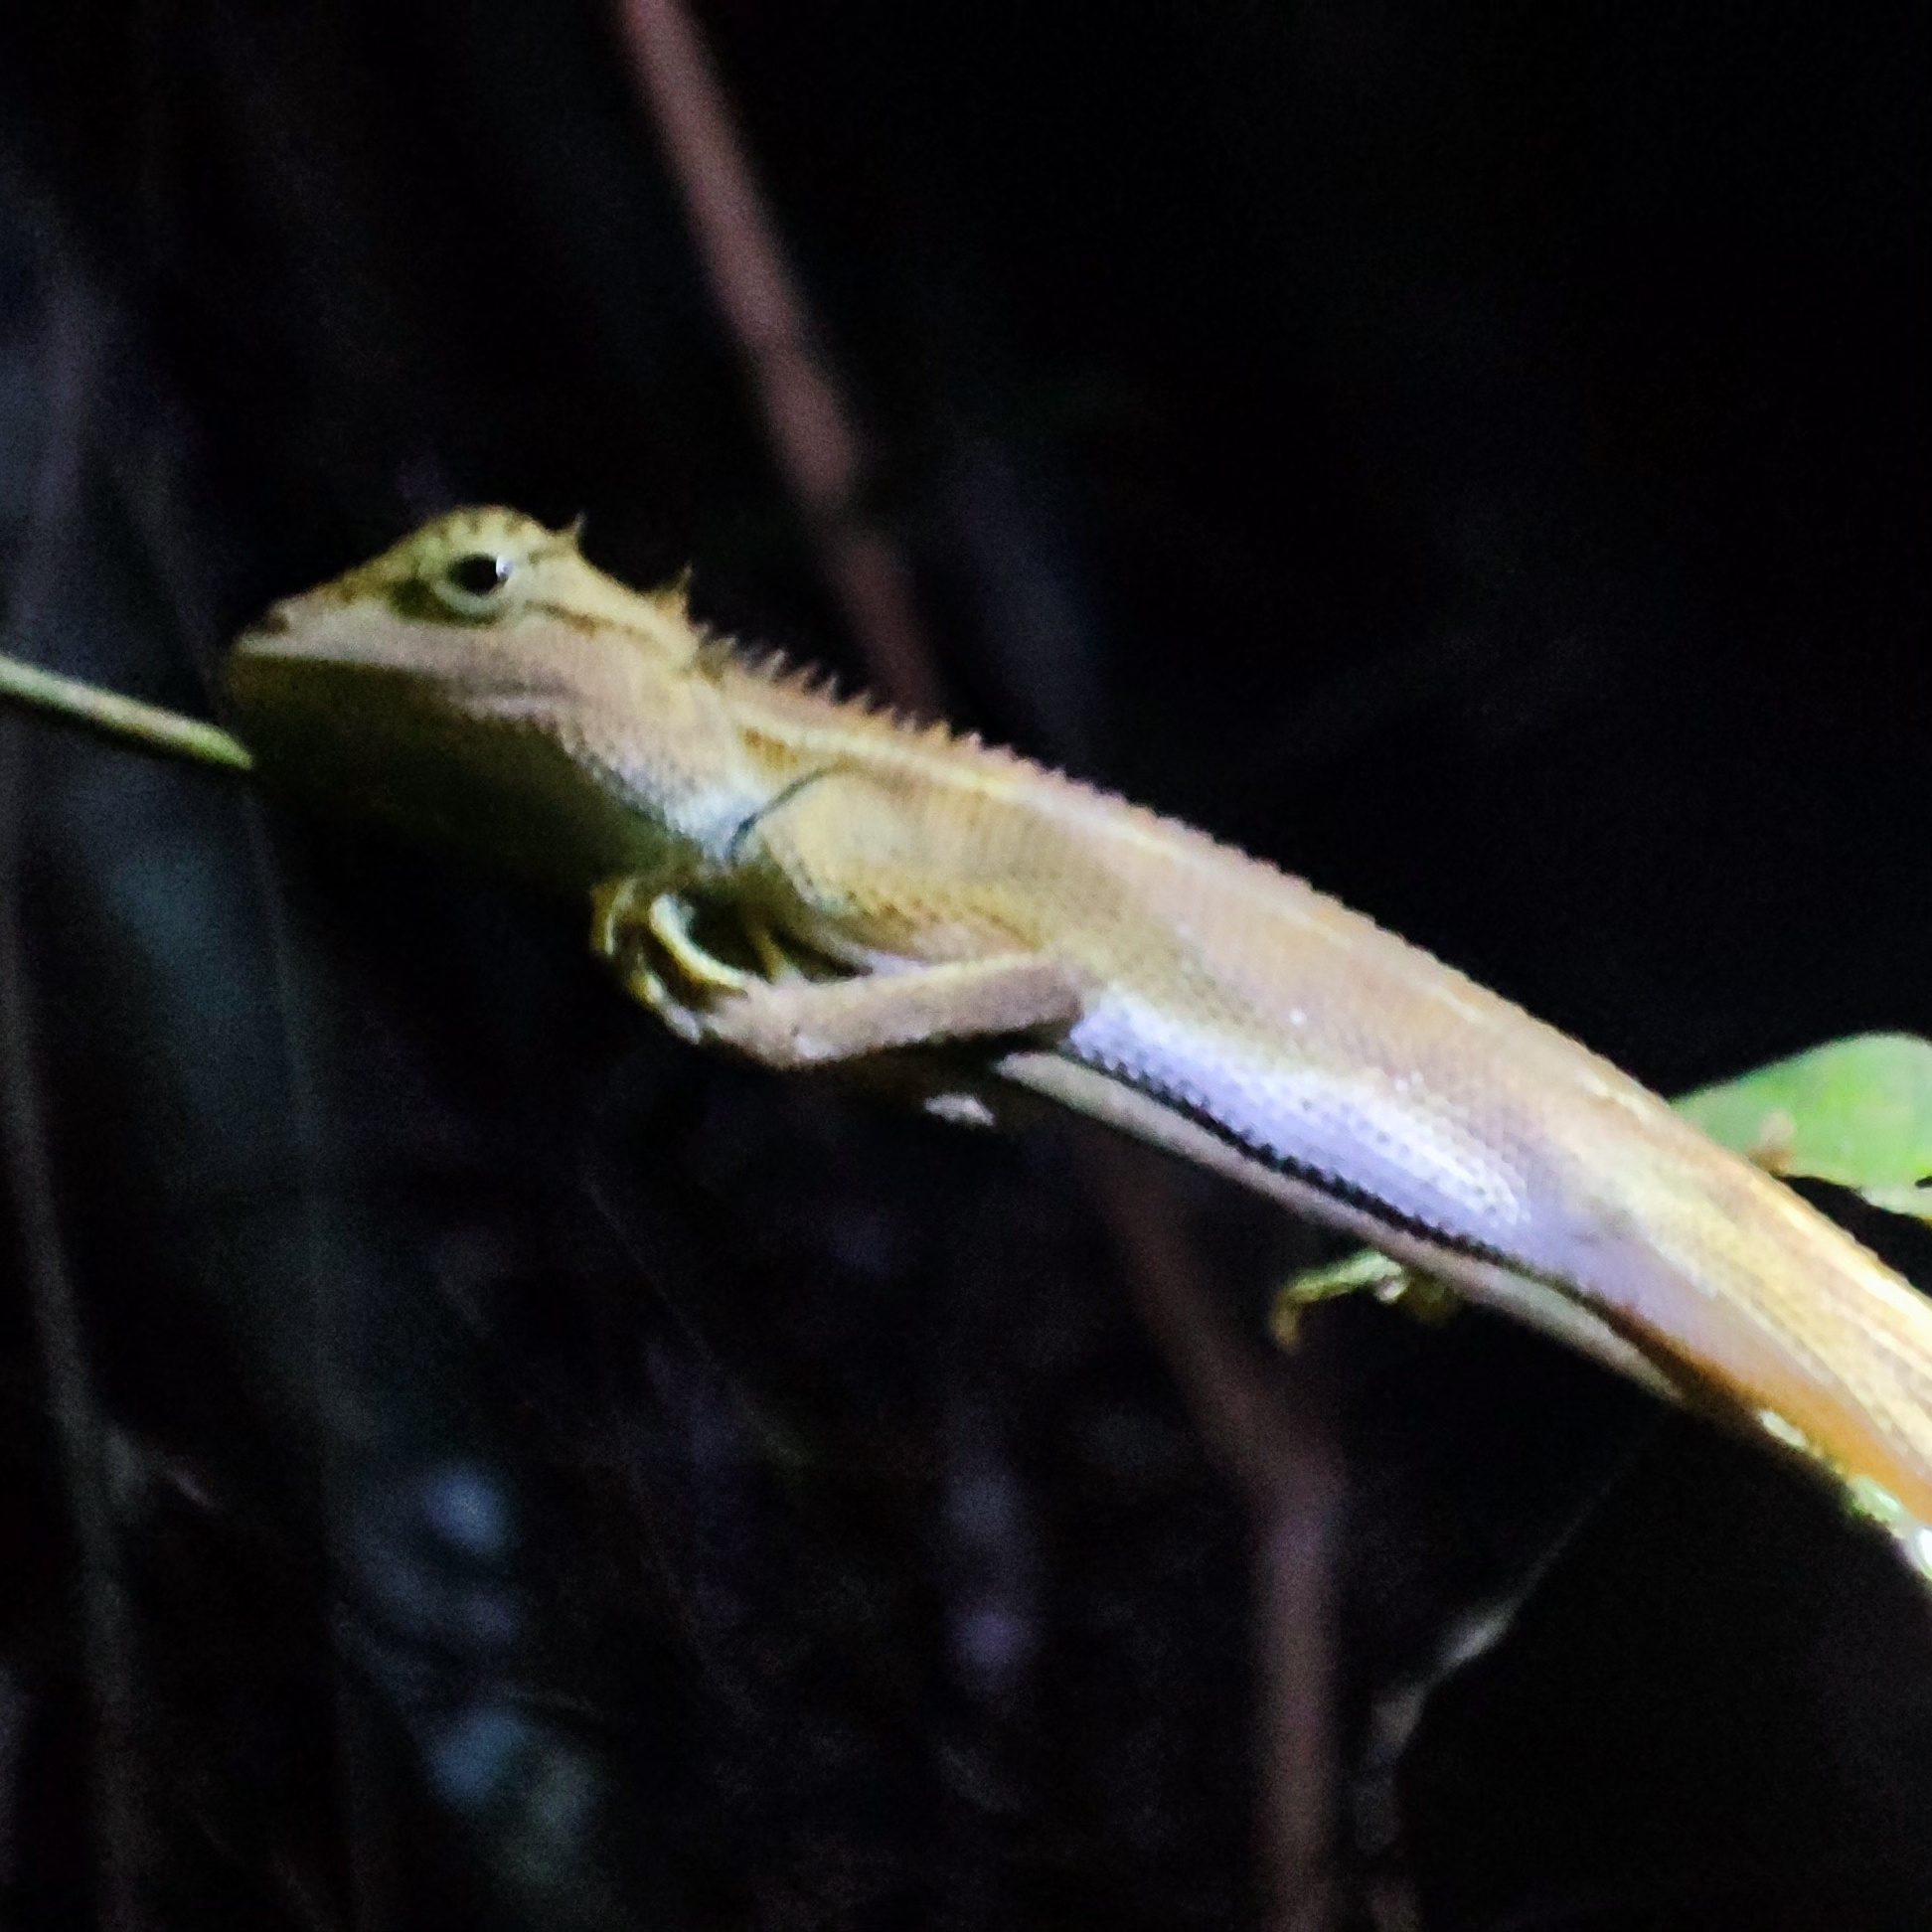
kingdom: Animalia
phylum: Chordata
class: Squamata
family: Agamidae
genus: Calotes
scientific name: Calotes emma
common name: Thailand bloodsucker
